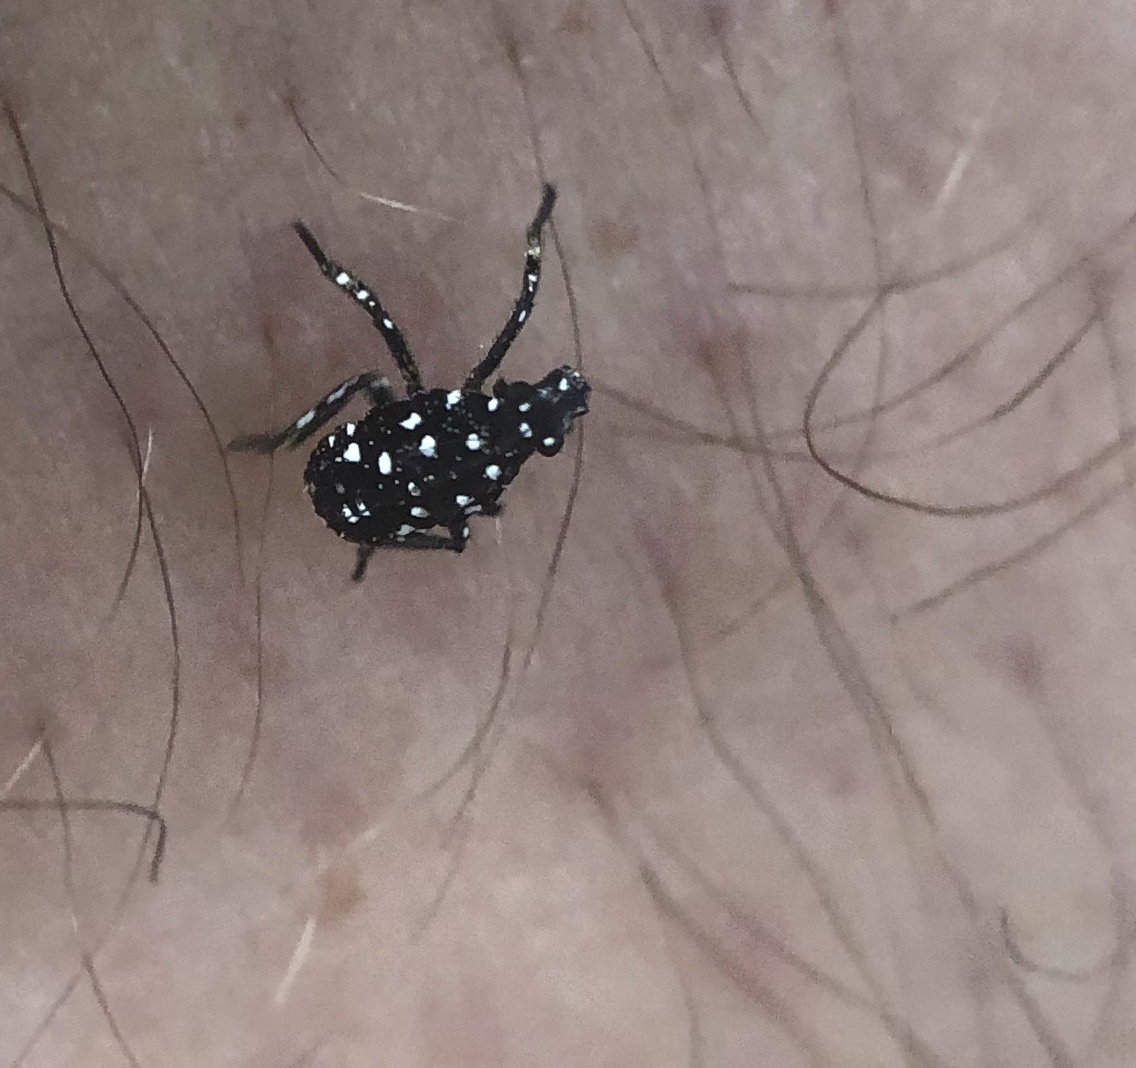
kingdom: Animalia
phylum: Arthropoda
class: Insecta
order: Hemiptera
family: Fulgoridae
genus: Lycorma
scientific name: Lycorma delicatula
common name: Spotted lanternfly
